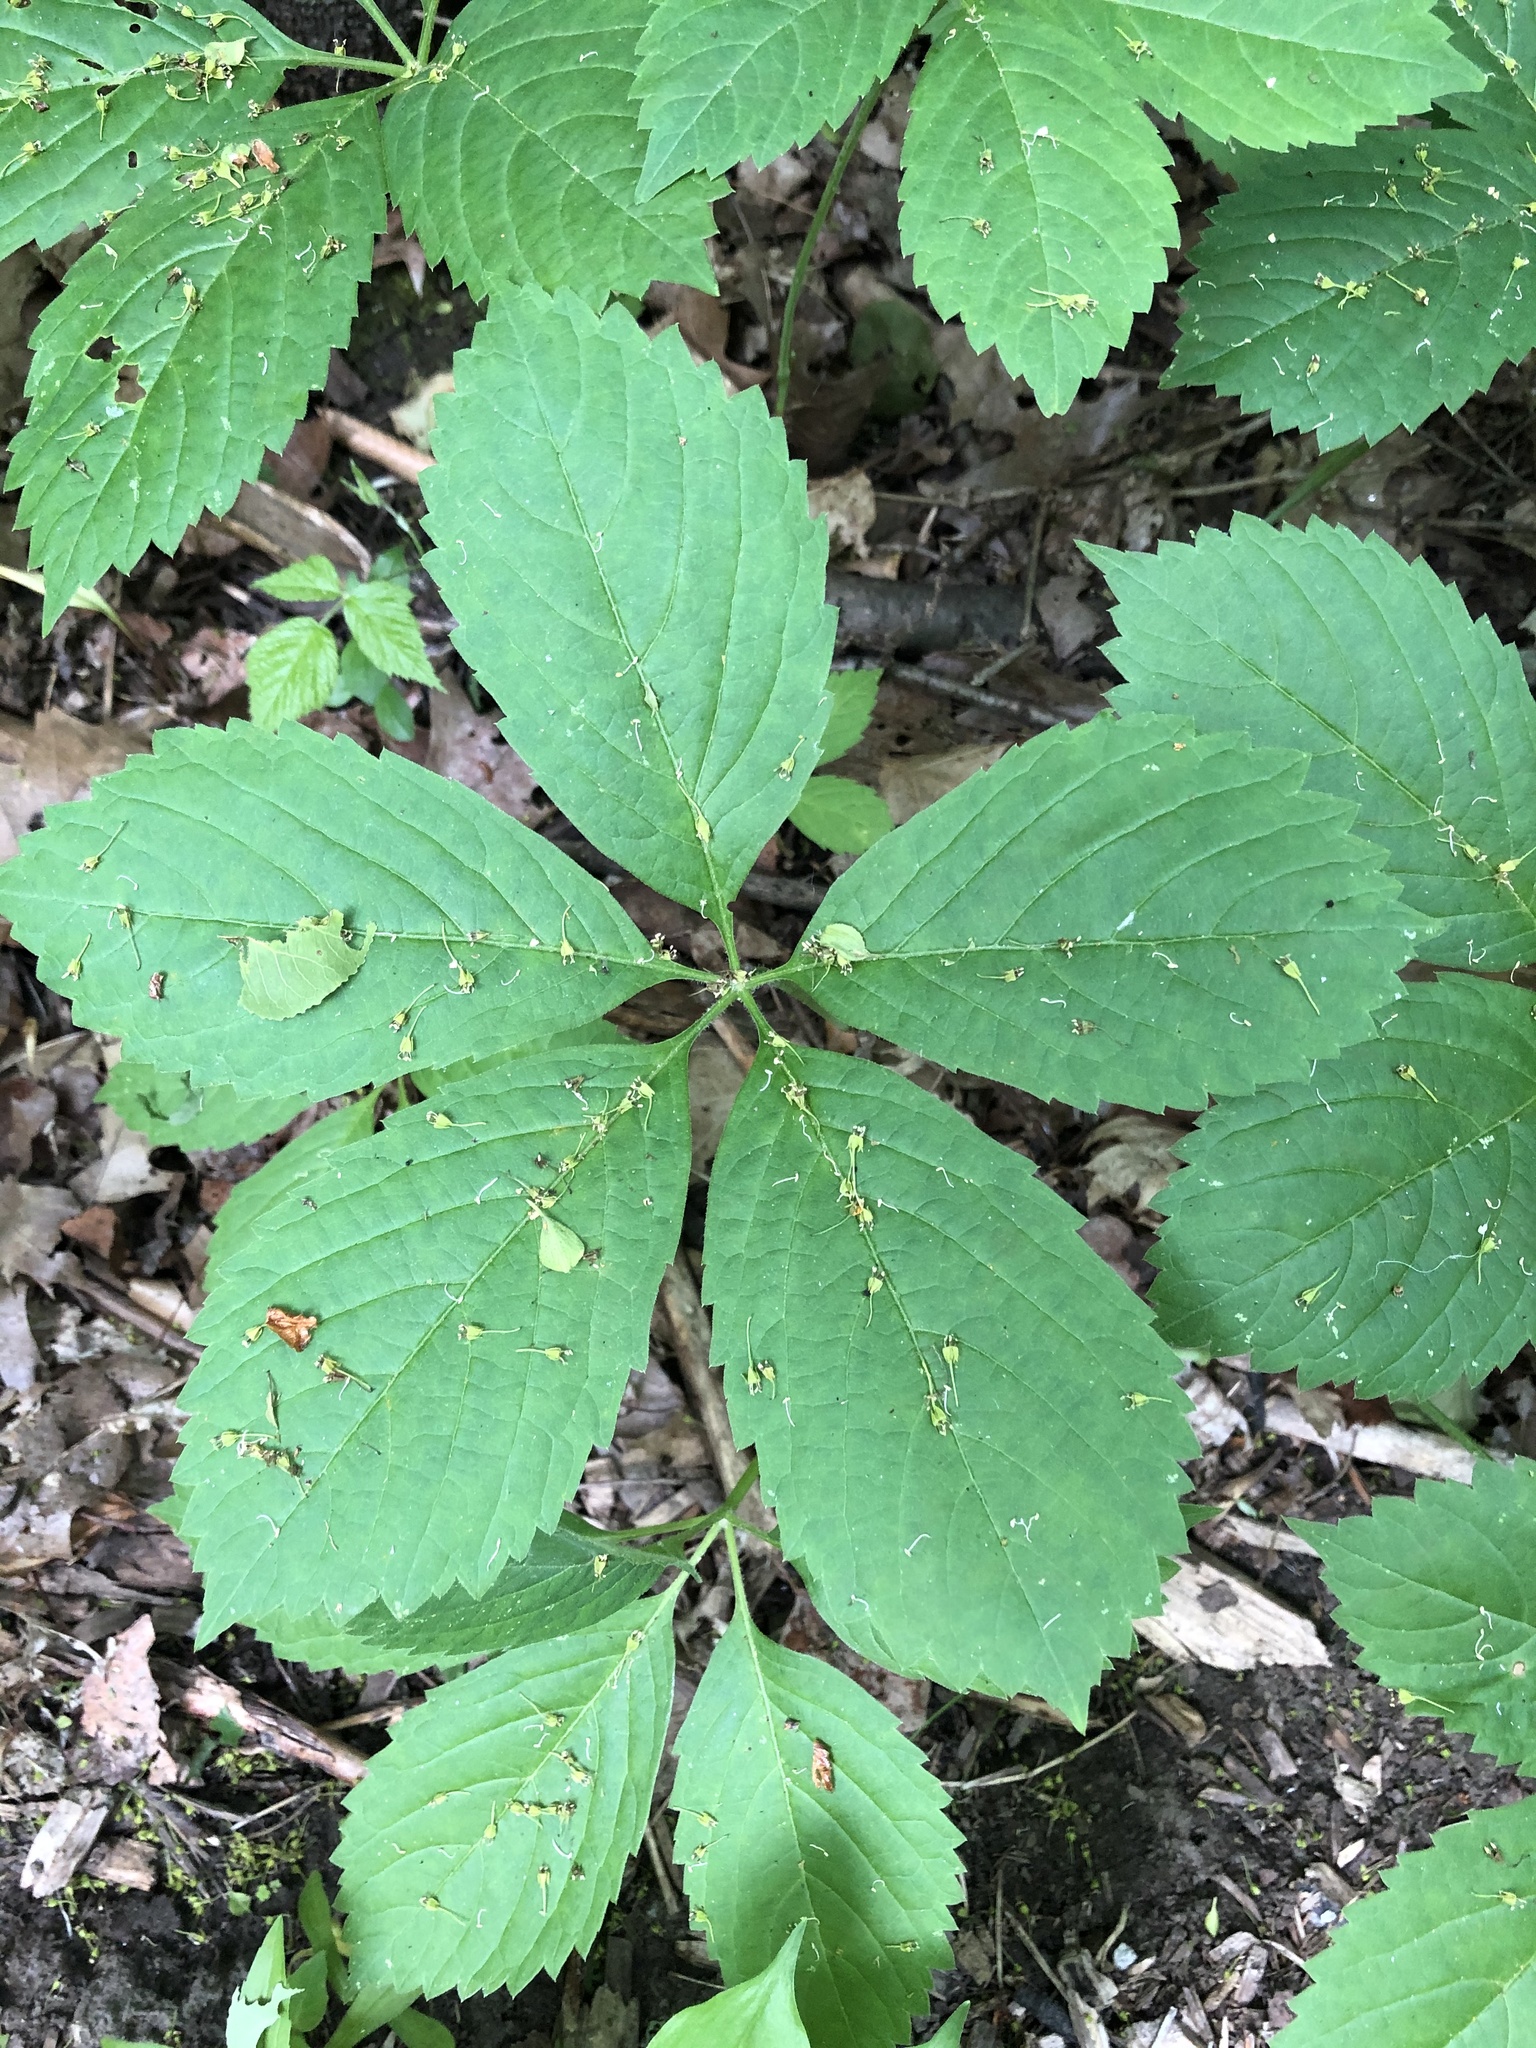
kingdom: Plantae
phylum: Tracheophyta
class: Magnoliopsida
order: Vitales
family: Vitaceae
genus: Parthenocissus
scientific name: Parthenocissus quinquefolia
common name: Virginia-creeper
